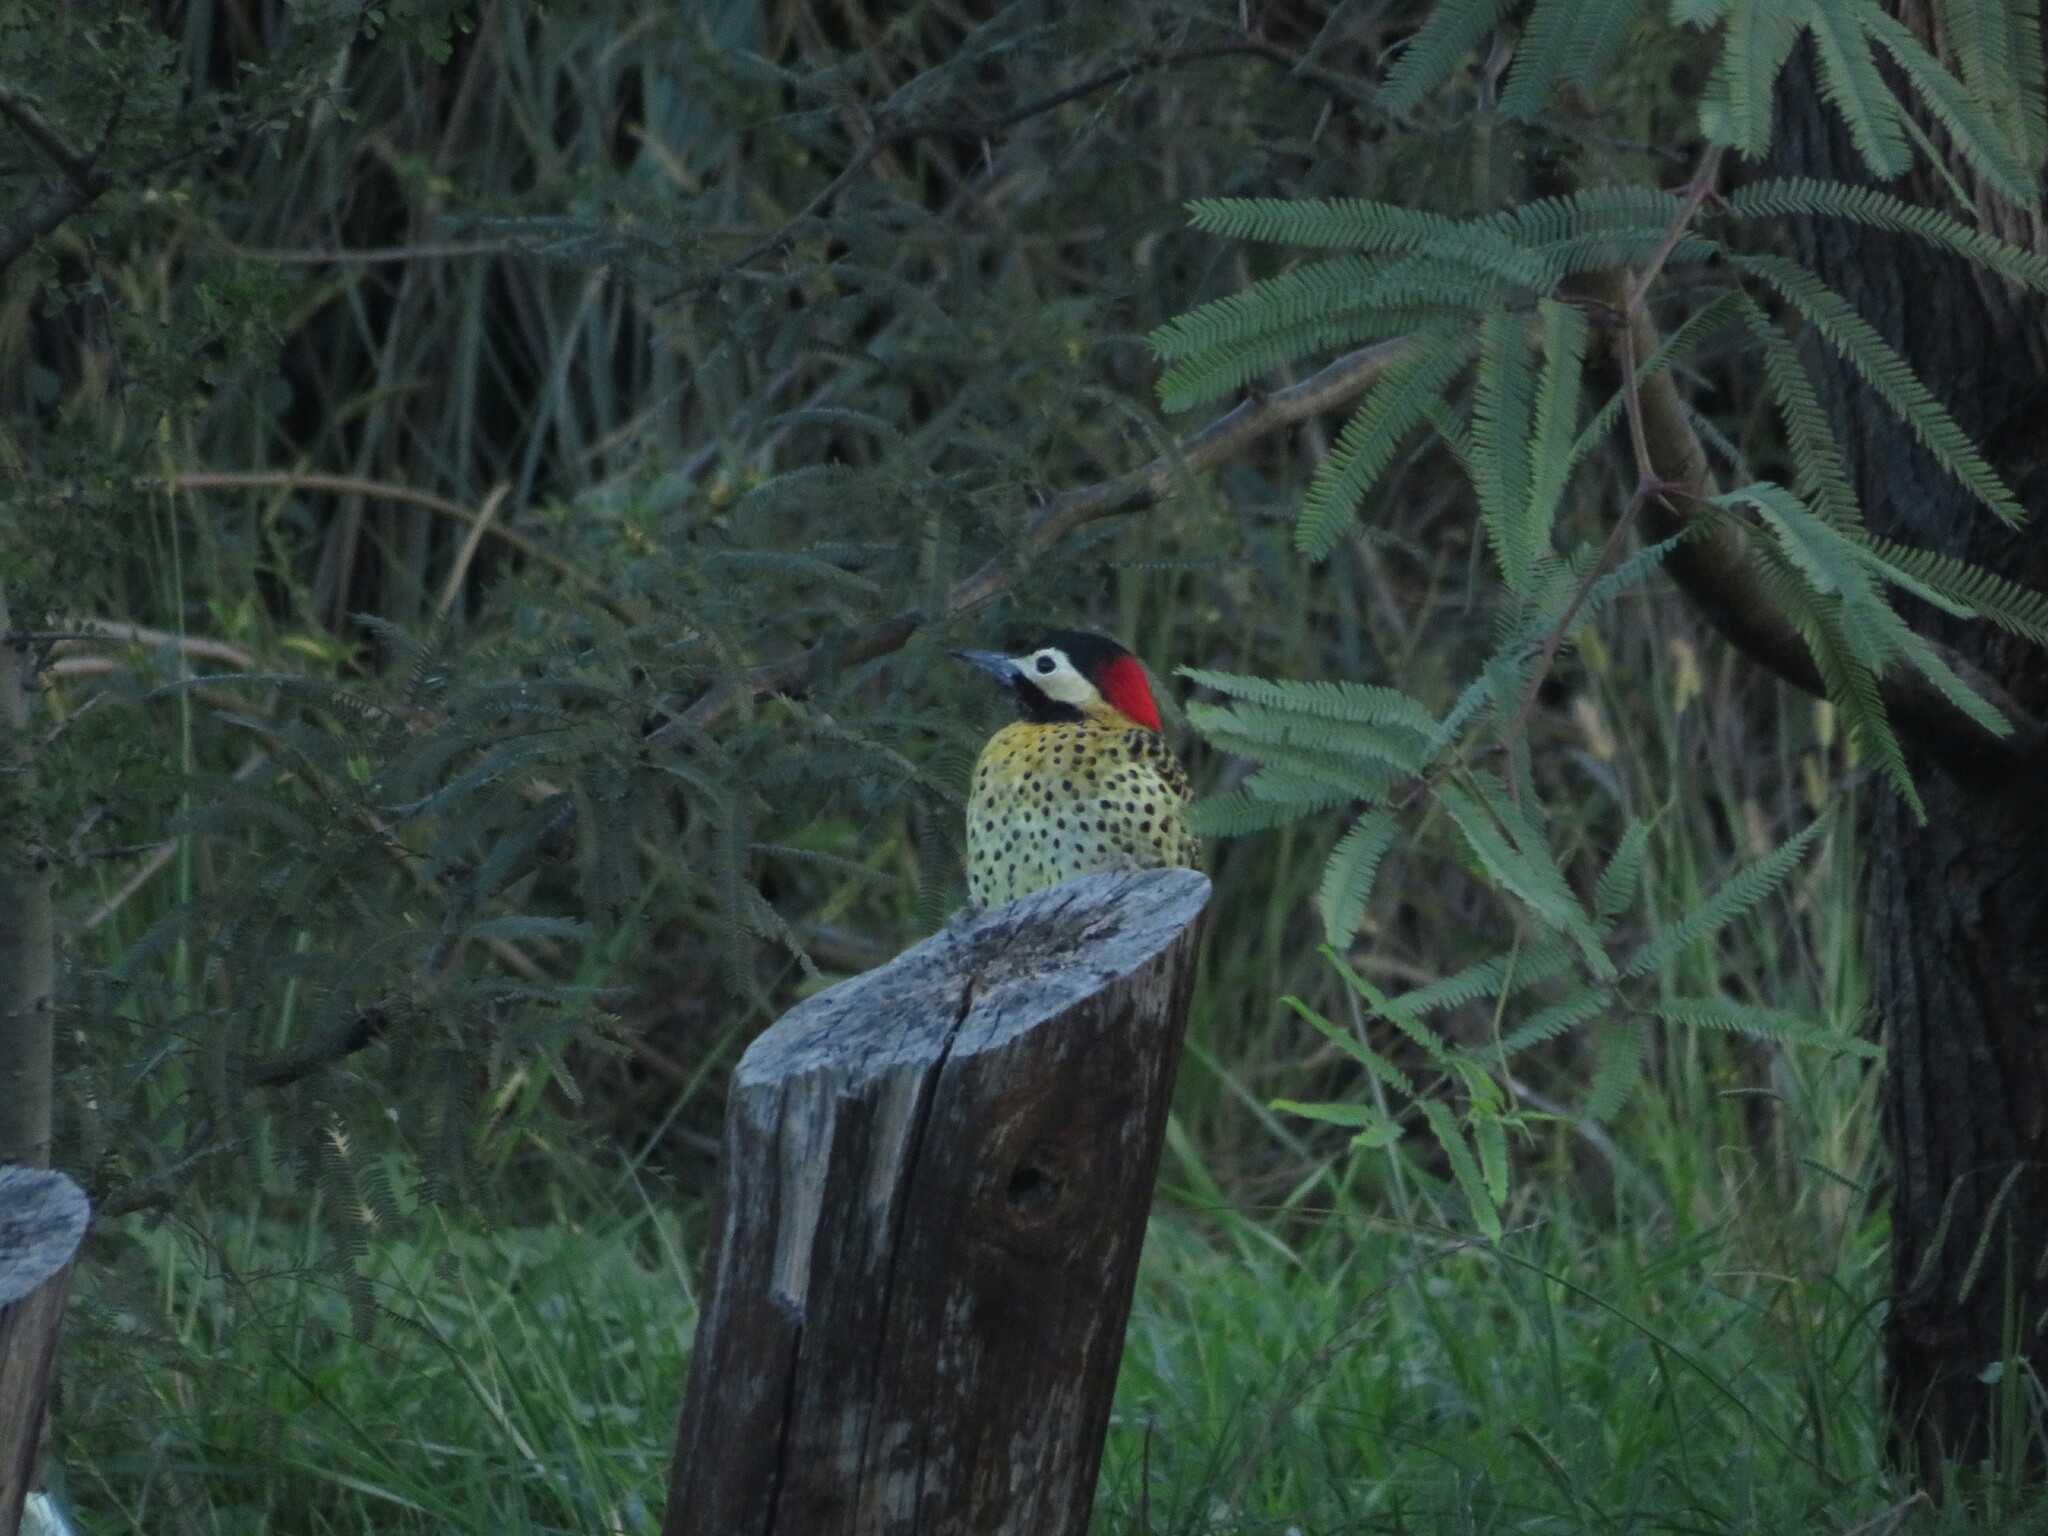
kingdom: Animalia
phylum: Chordata
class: Aves
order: Piciformes
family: Picidae
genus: Colaptes
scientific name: Colaptes melanochloros
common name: Green-barred woodpecker
